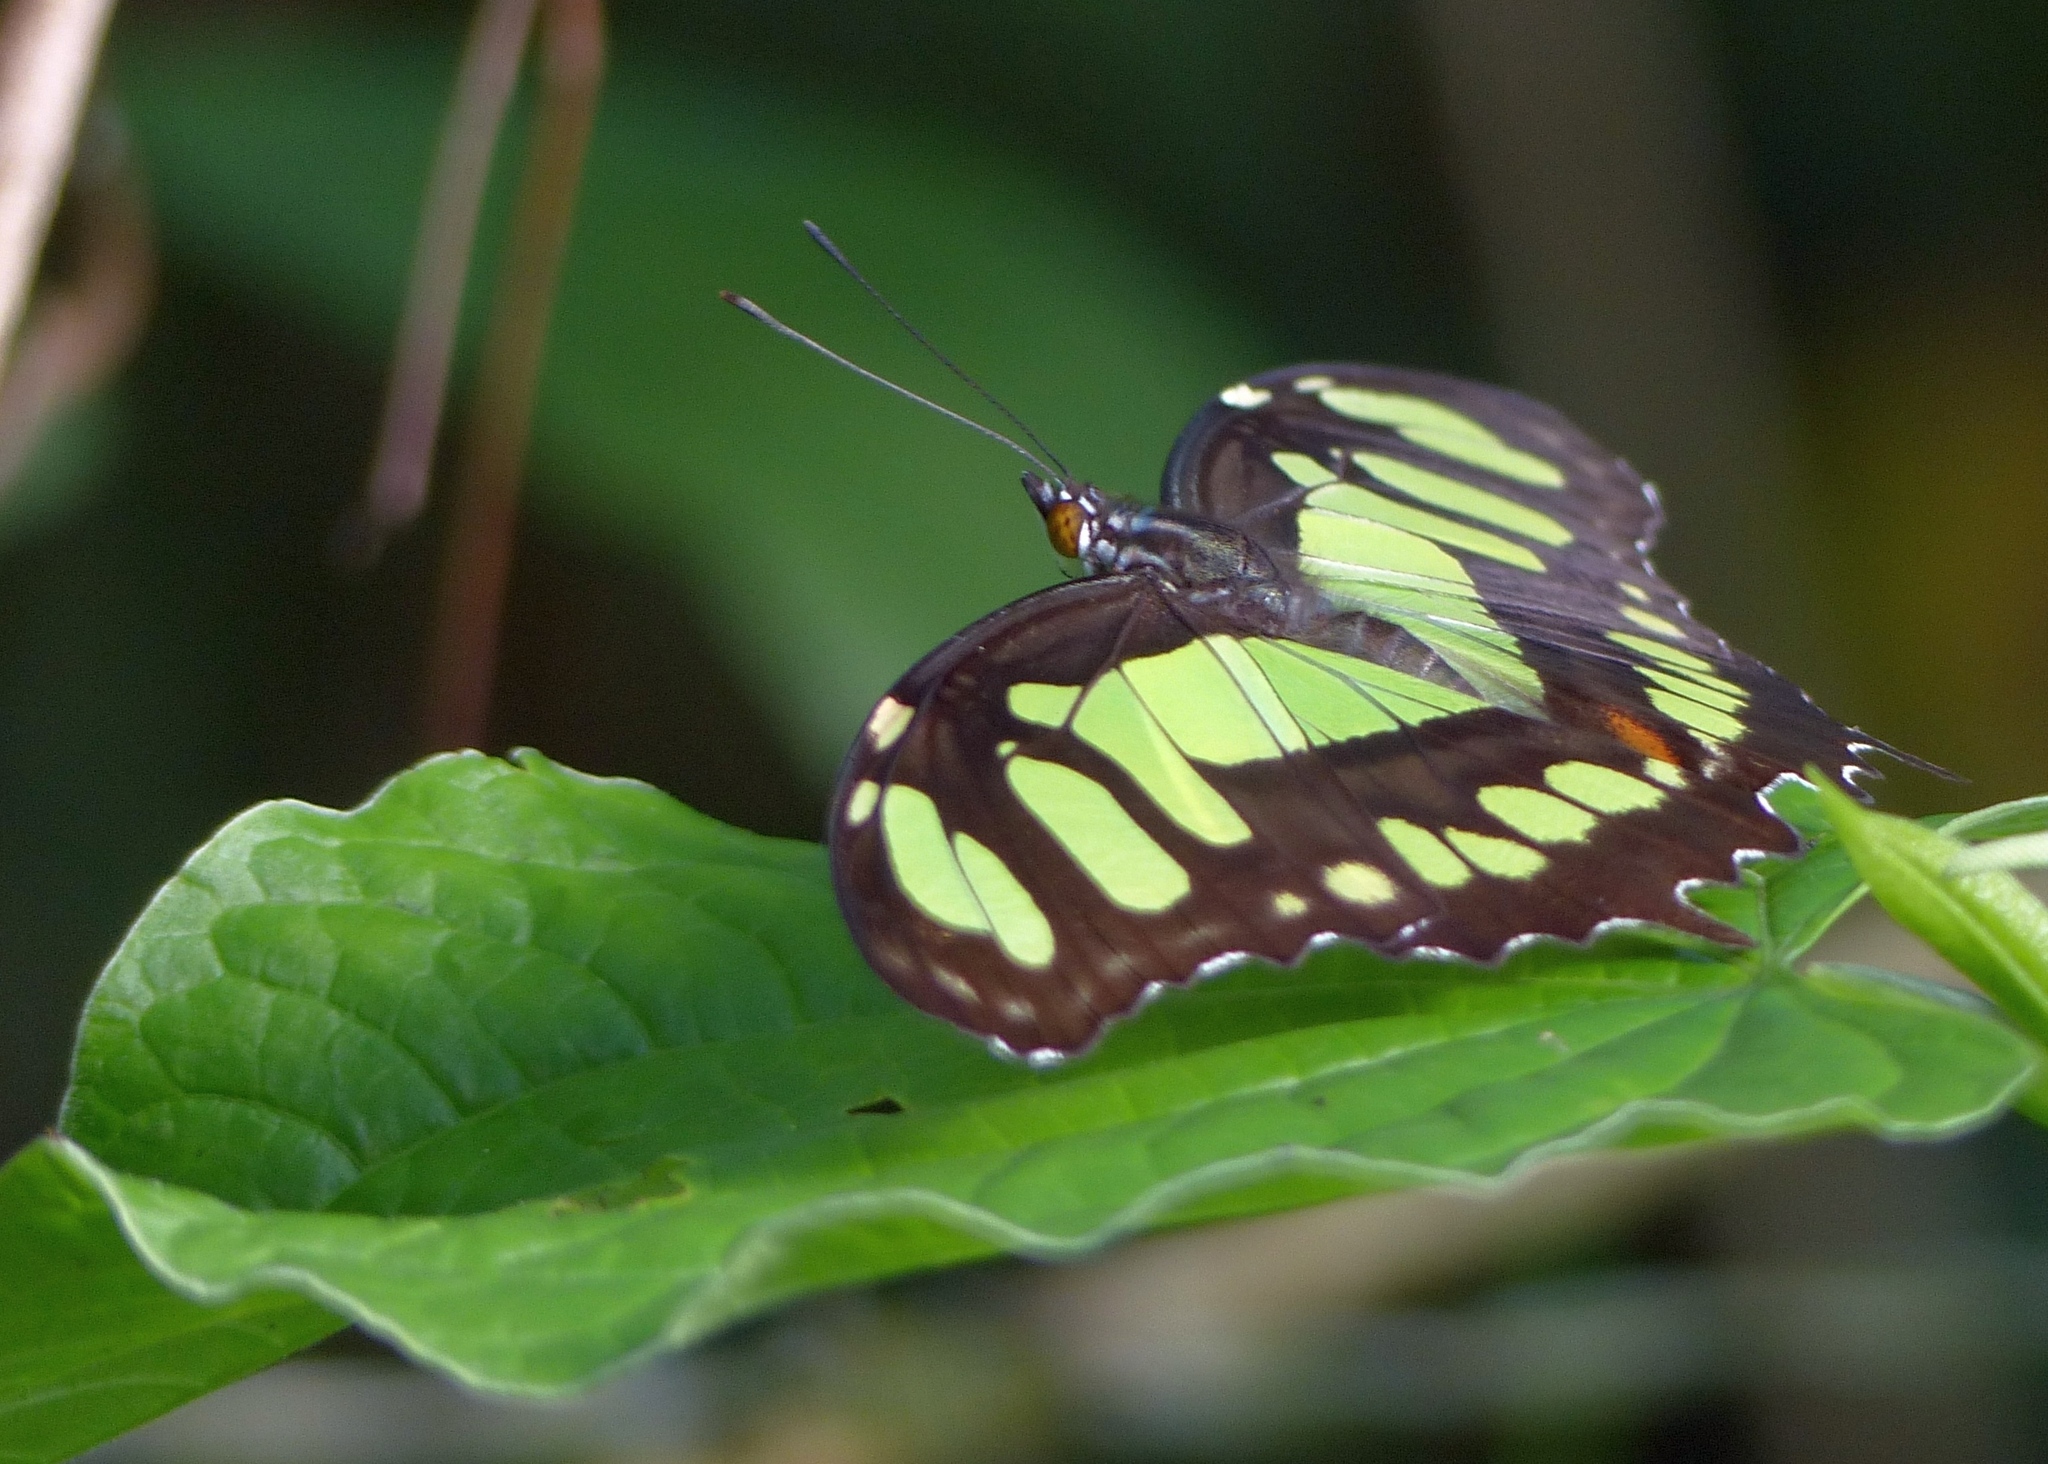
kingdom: Animalia
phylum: Arthropoda
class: Insecta
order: Lepidoptera
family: Nymphalidae
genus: Siproeta
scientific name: Siproeta stelenes
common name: Malachite
